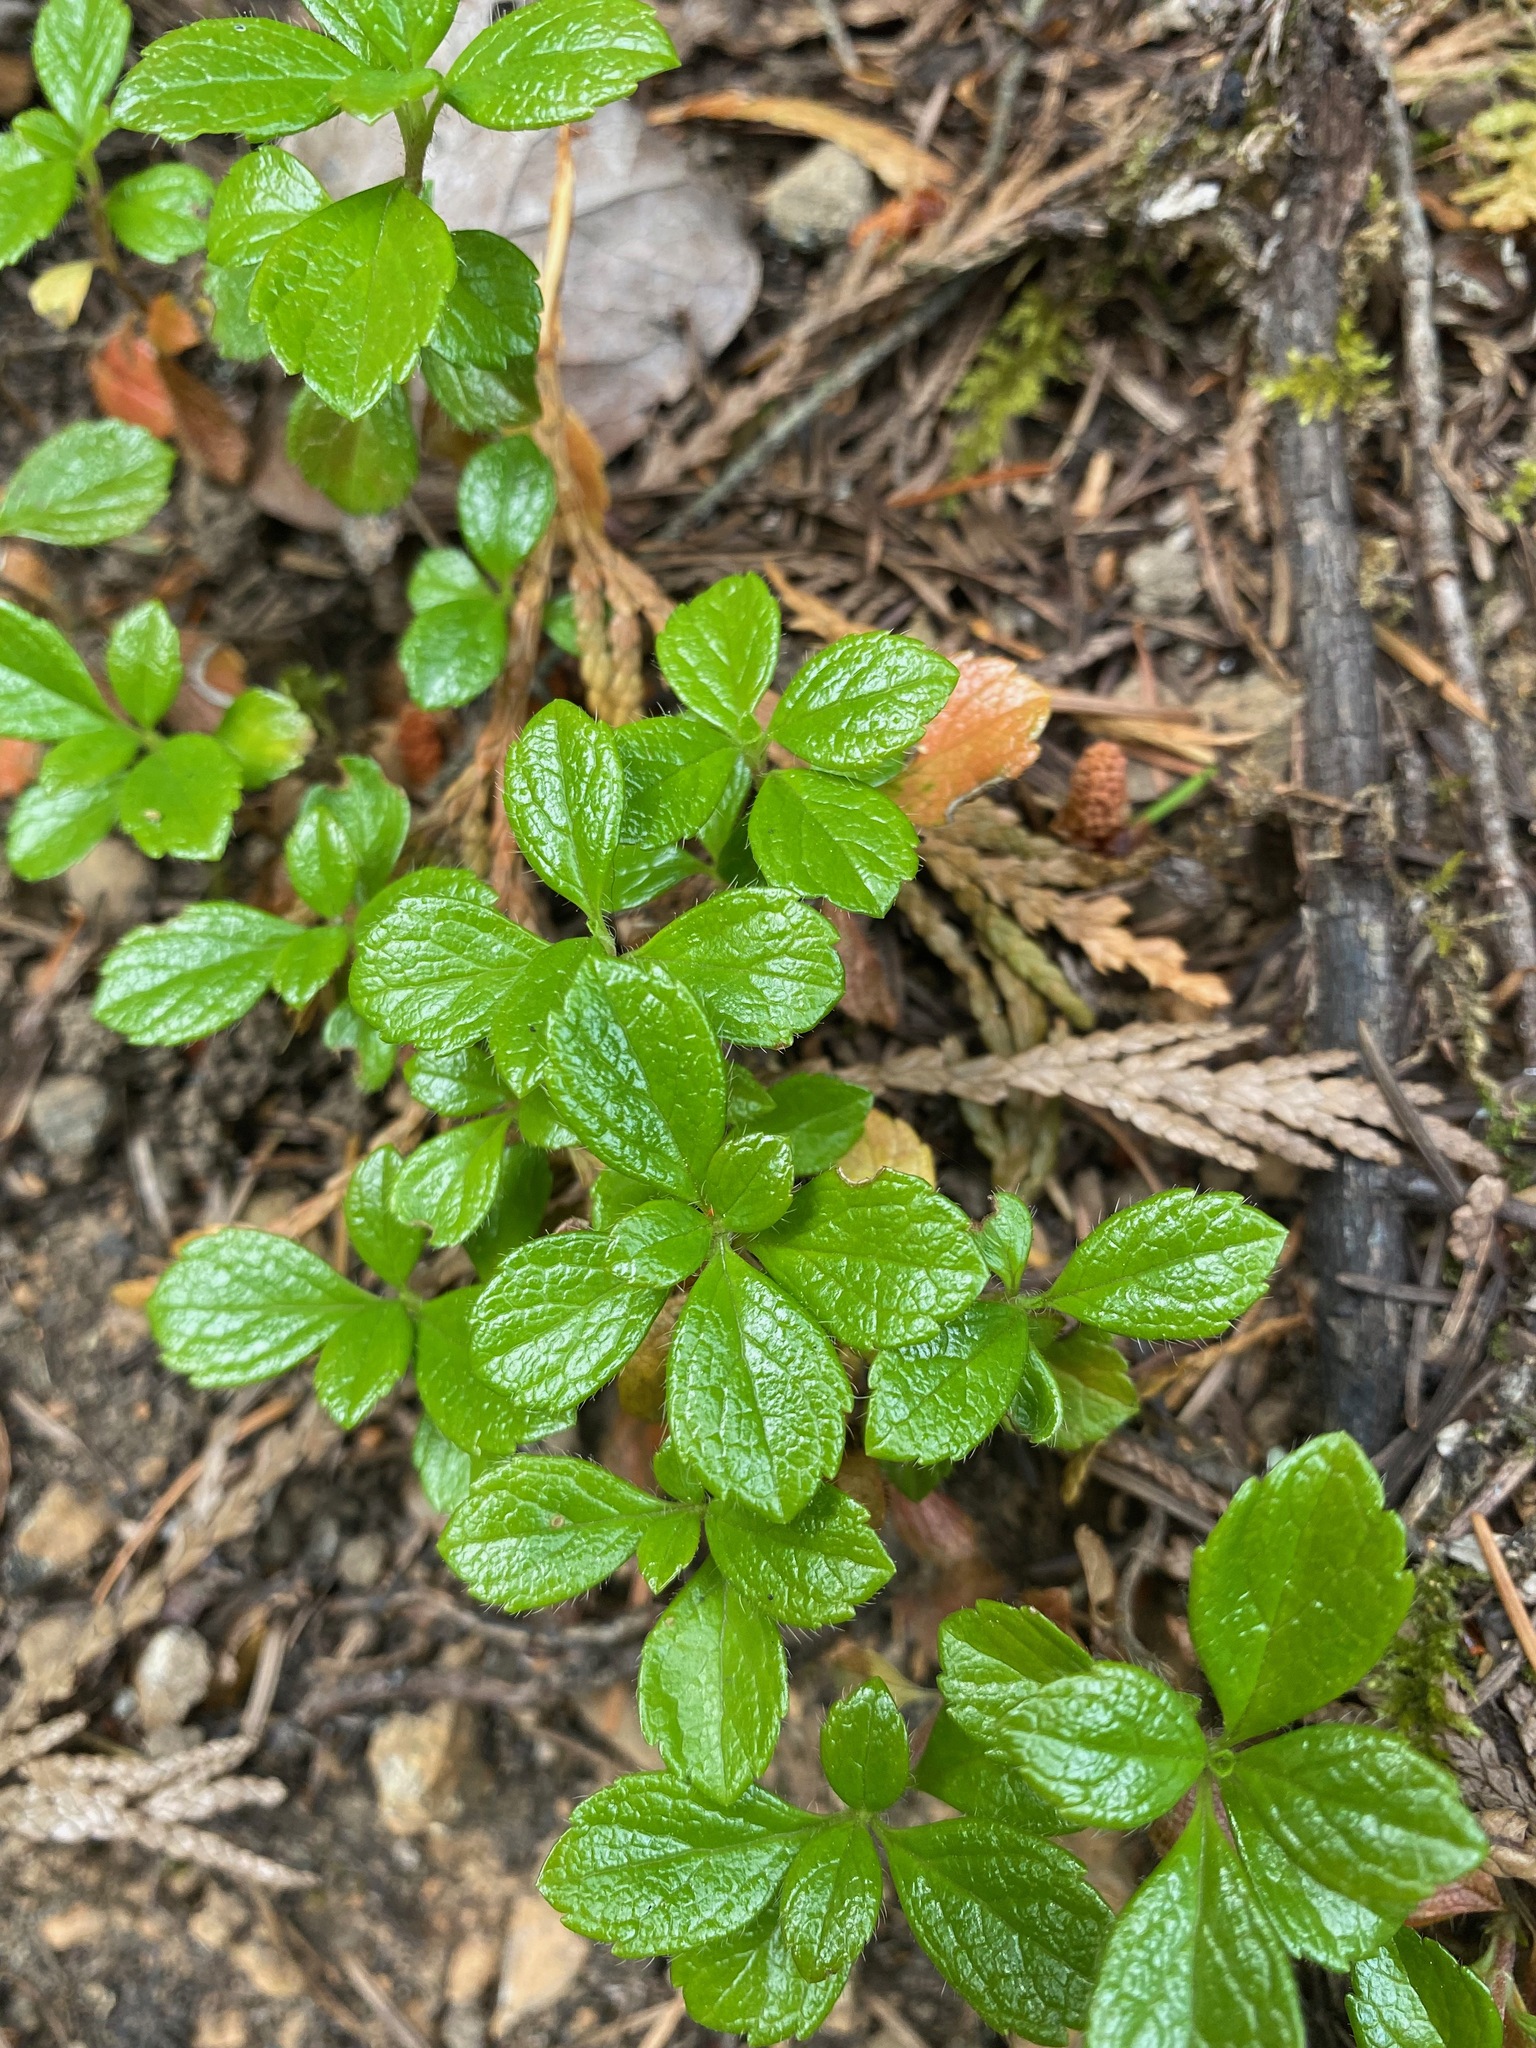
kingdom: Plantae
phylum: Tracheophyta
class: Magnoliopsida
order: Dipsacales
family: Caprifoliaceae
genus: Linnaea
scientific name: Linnaea borealis
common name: Twinflower
